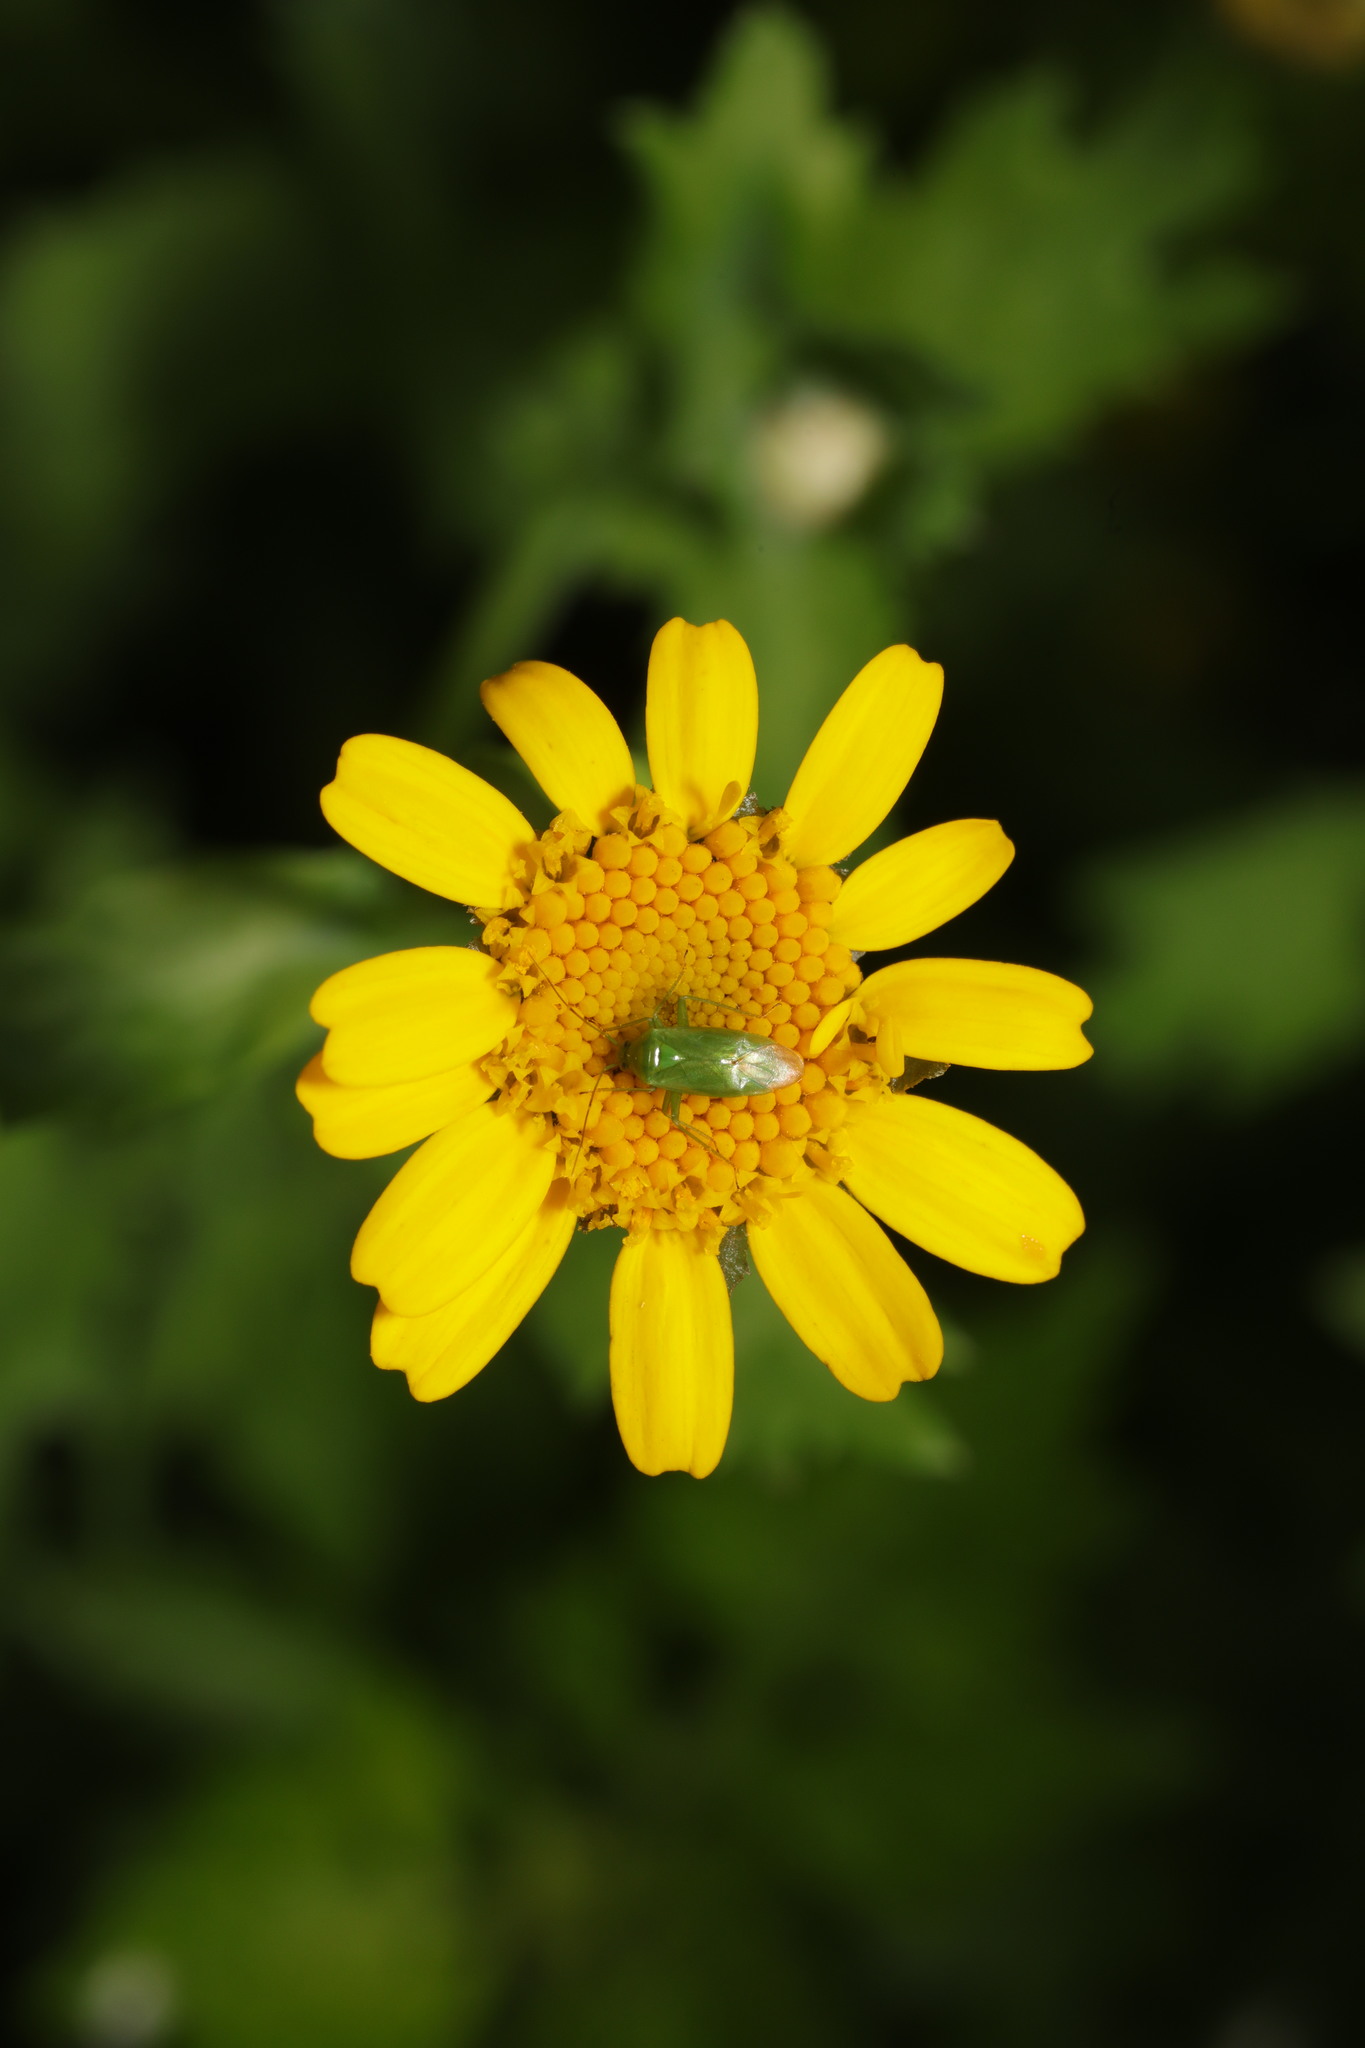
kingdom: Plantae
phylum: Tracheophyta
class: Magnoliopsida
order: Asterales
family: Asteraceae
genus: Glebionis
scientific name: Glebionis segetum
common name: Corndaisy
